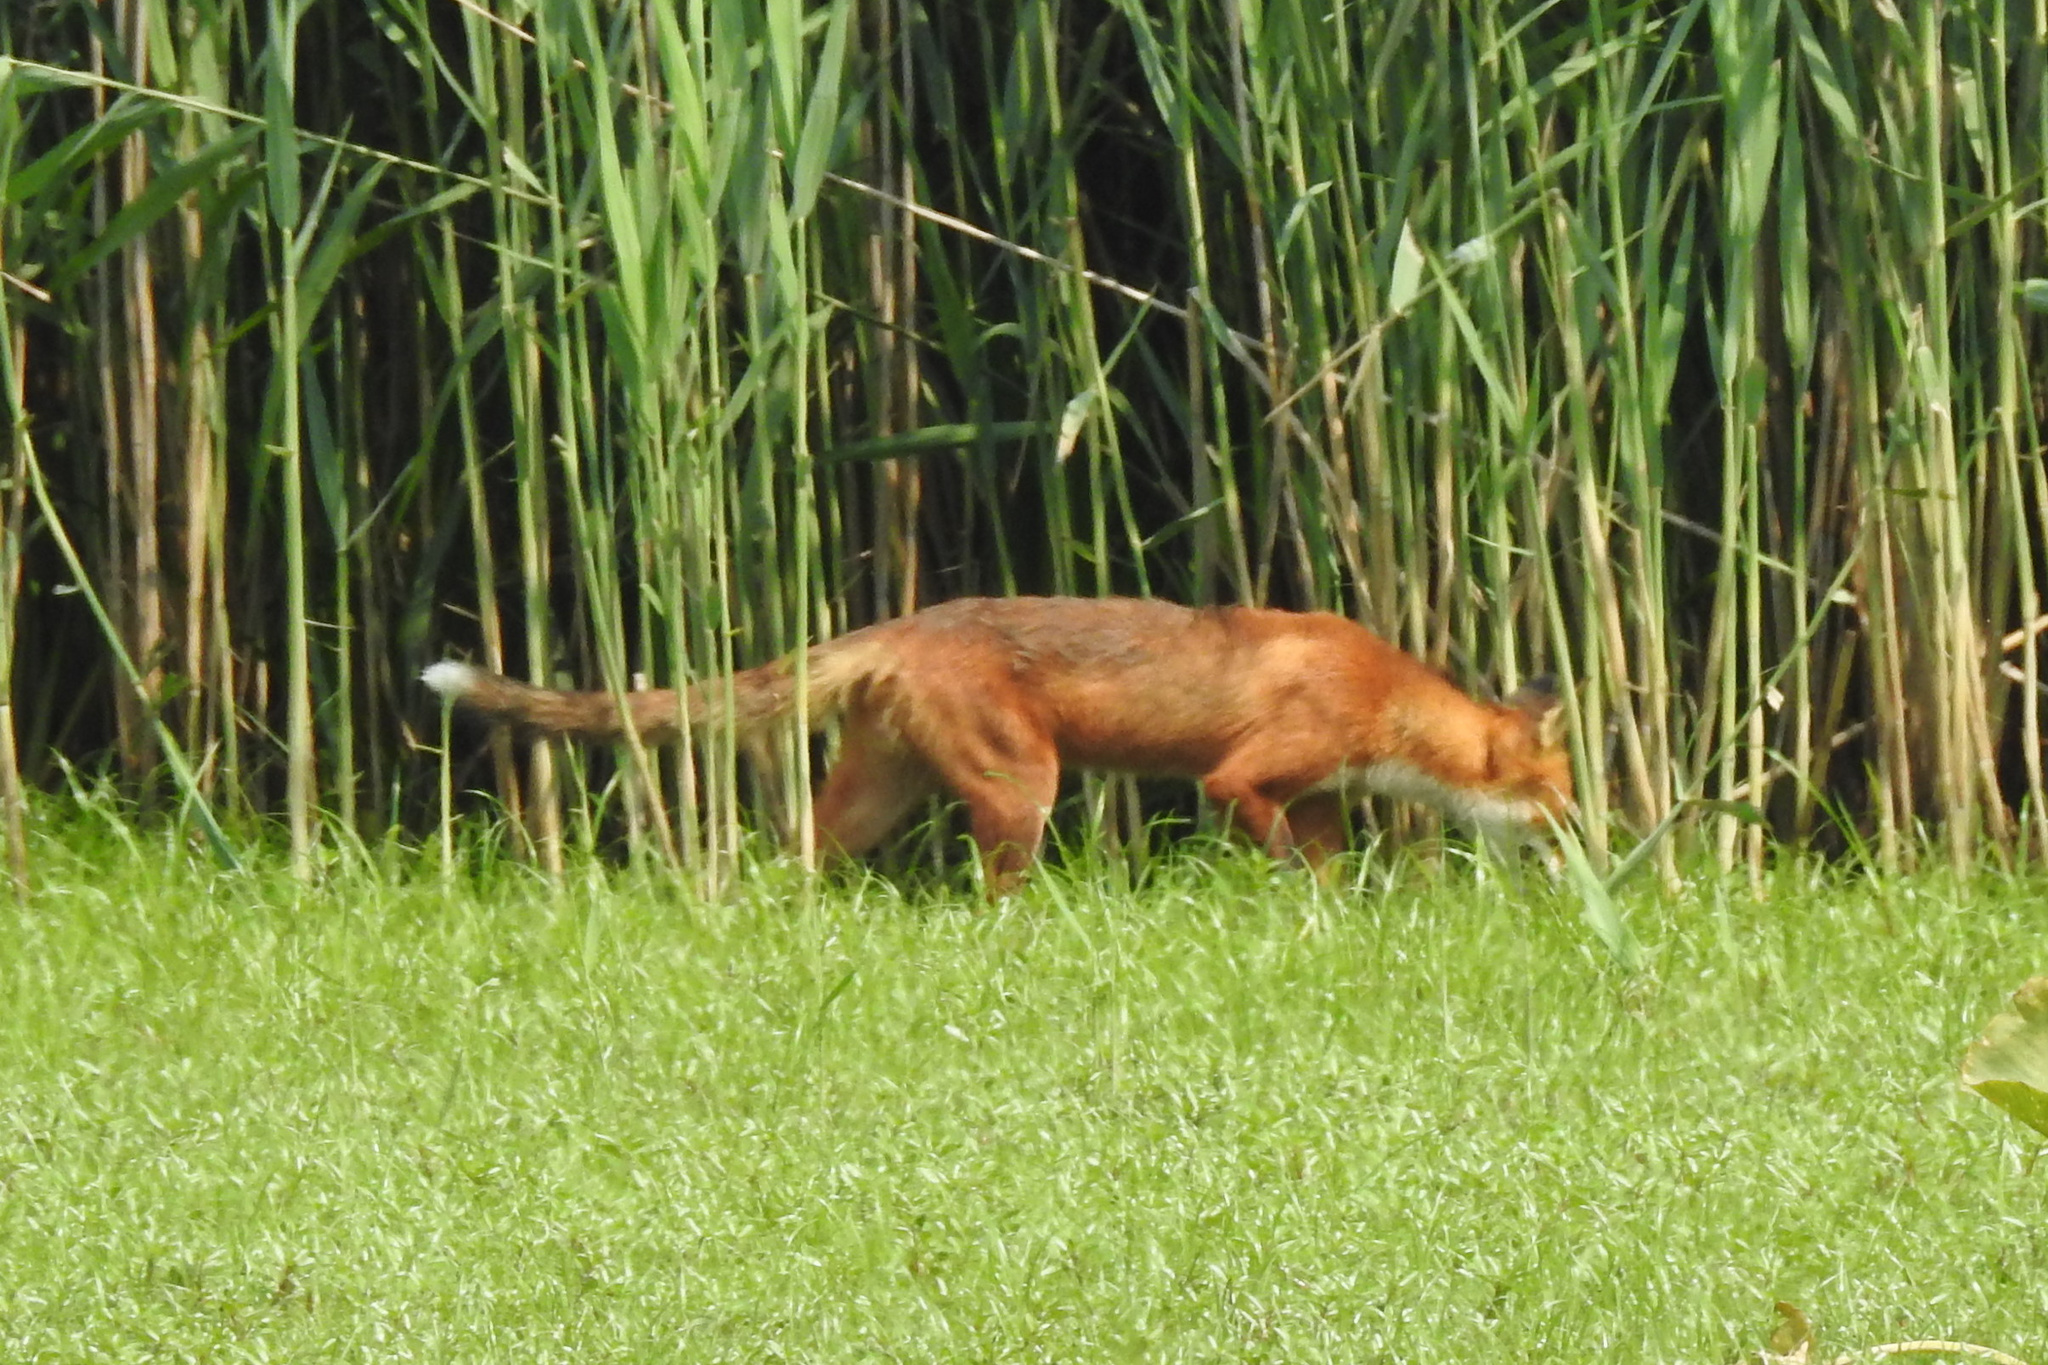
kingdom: Animalia
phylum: Chordata
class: Mammalia
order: Carnivora
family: Canidae
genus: Vulpes
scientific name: Vulpes vulpes
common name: Red fox
